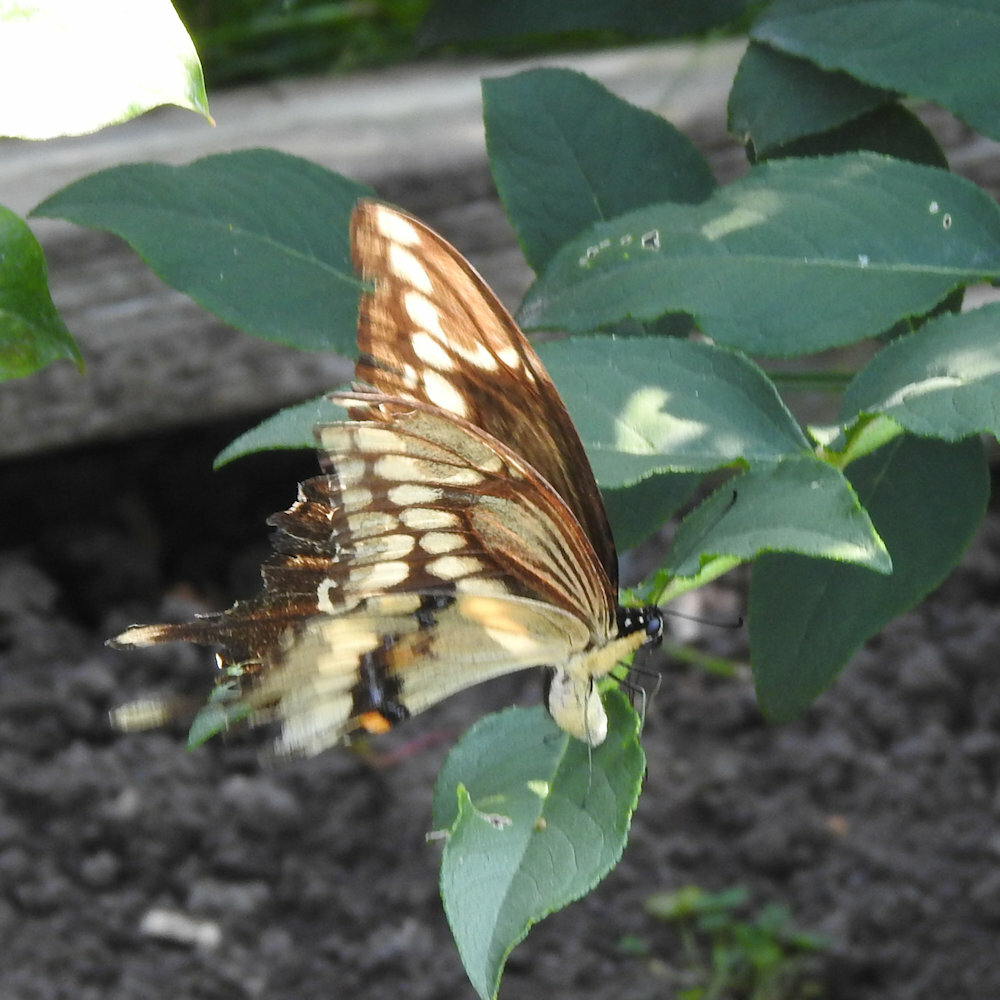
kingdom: Animalia
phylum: Arthropoda
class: Insecta
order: Lepidoptera
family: Papilionidae
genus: Papilio
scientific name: Papilio cresphontes
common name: Giant swallowtail
